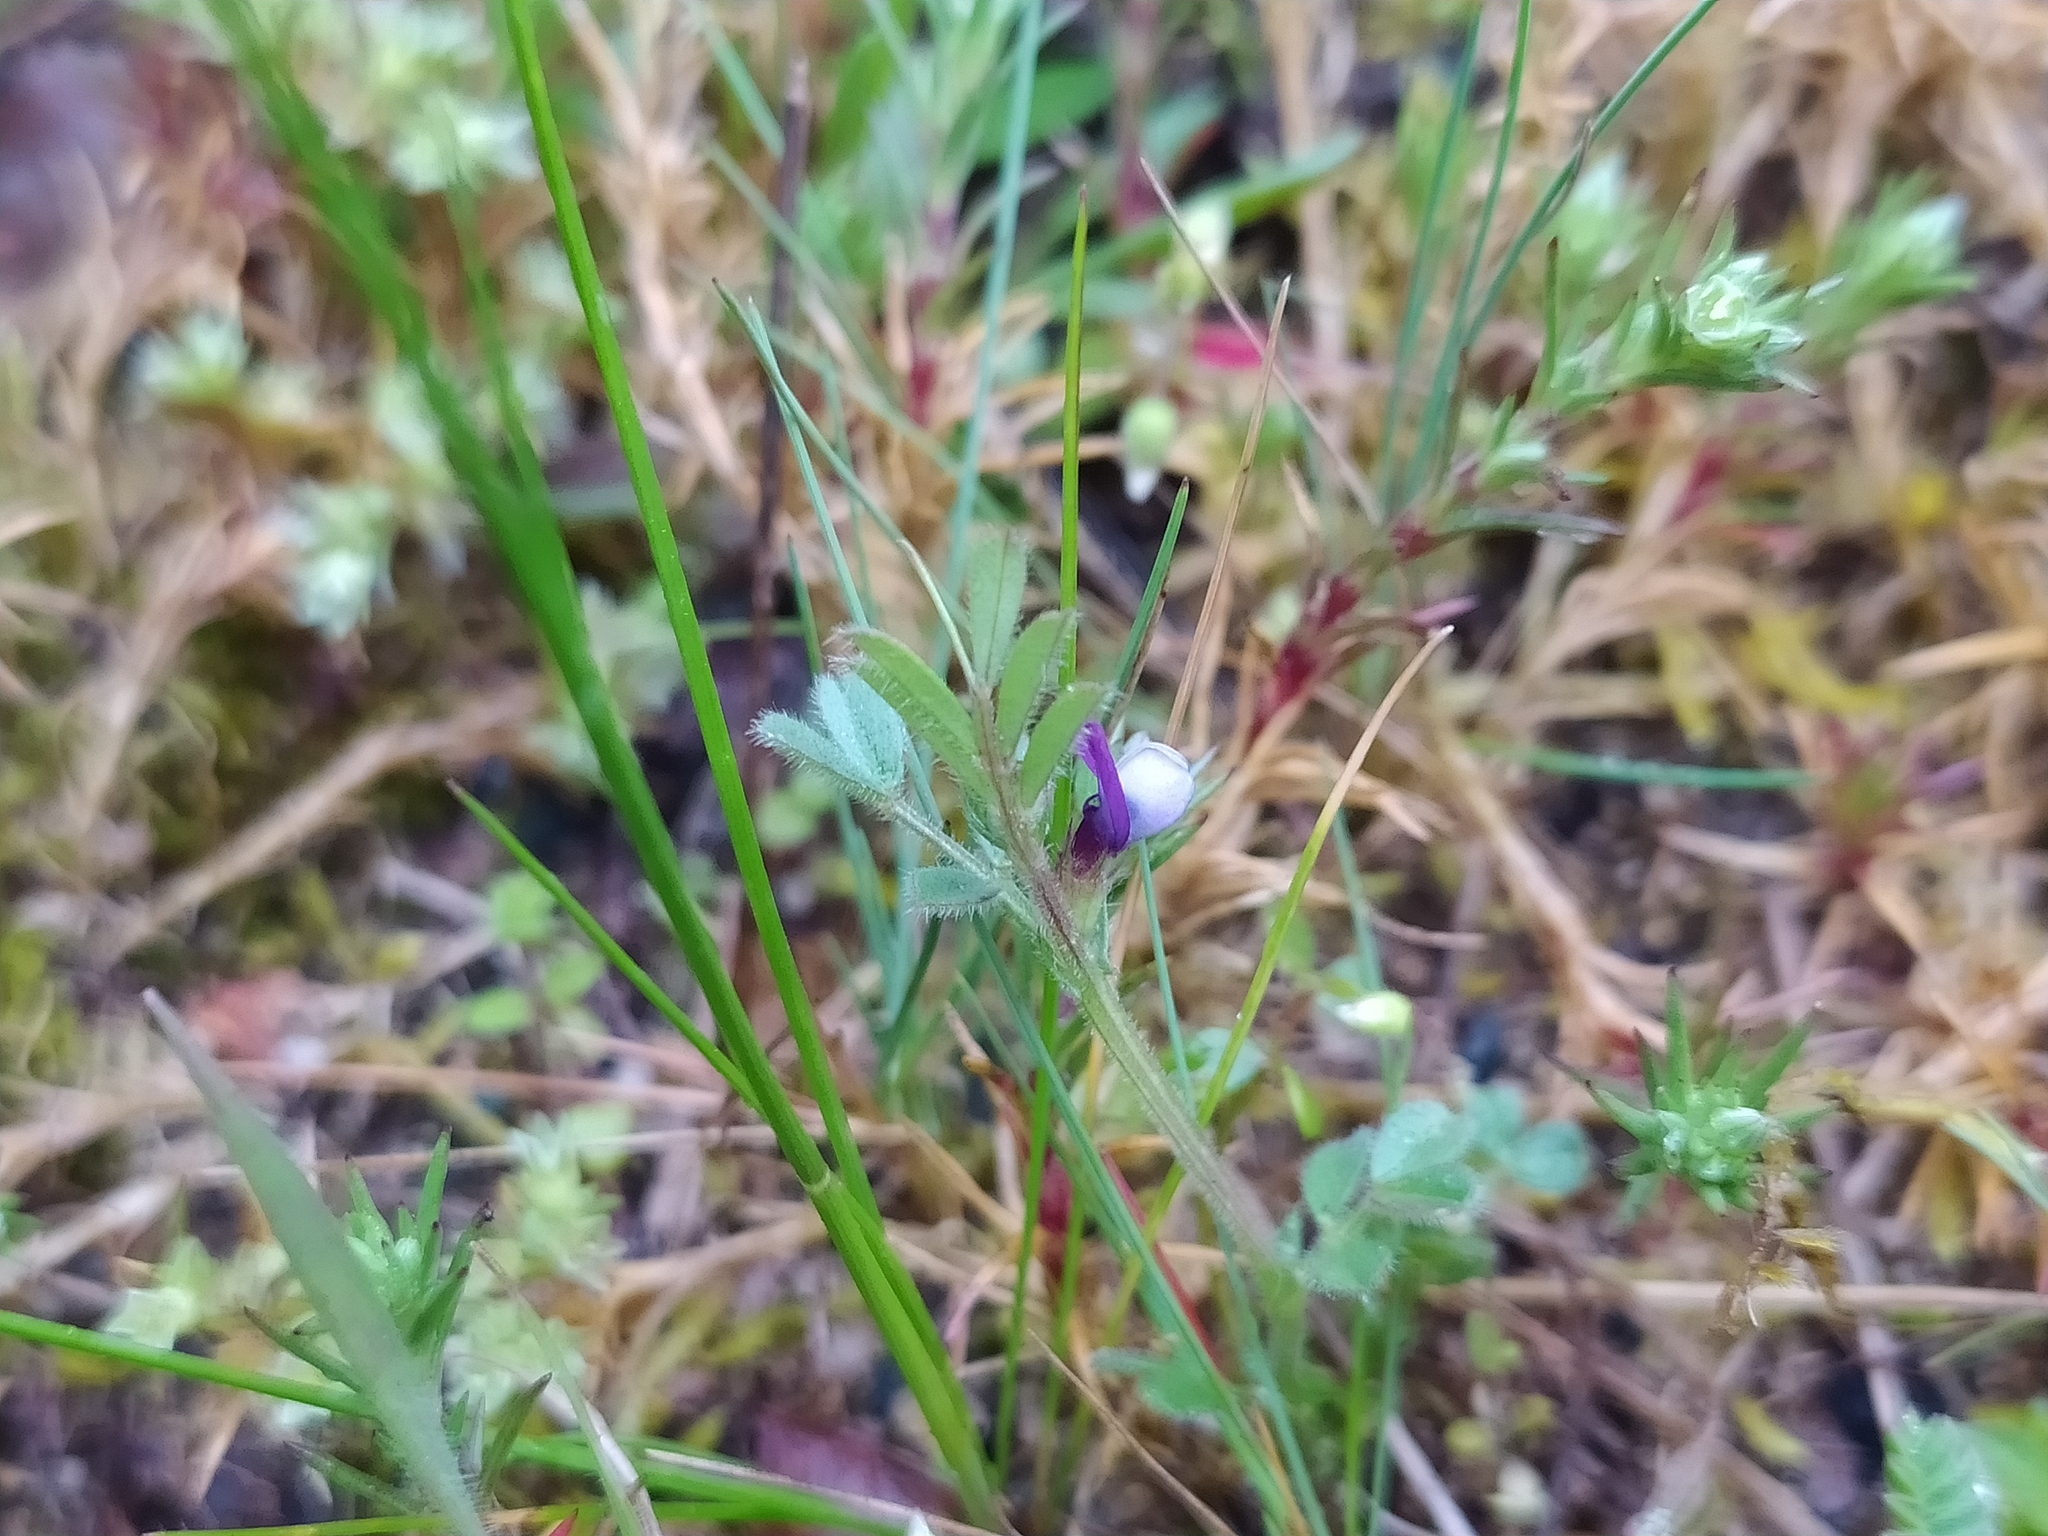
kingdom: Plantae
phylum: Tracheophyta
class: Magnoliopsida
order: Fabales
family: Fabaceae
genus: Vicia
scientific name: Vicia lathyroides
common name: Spring vetch
